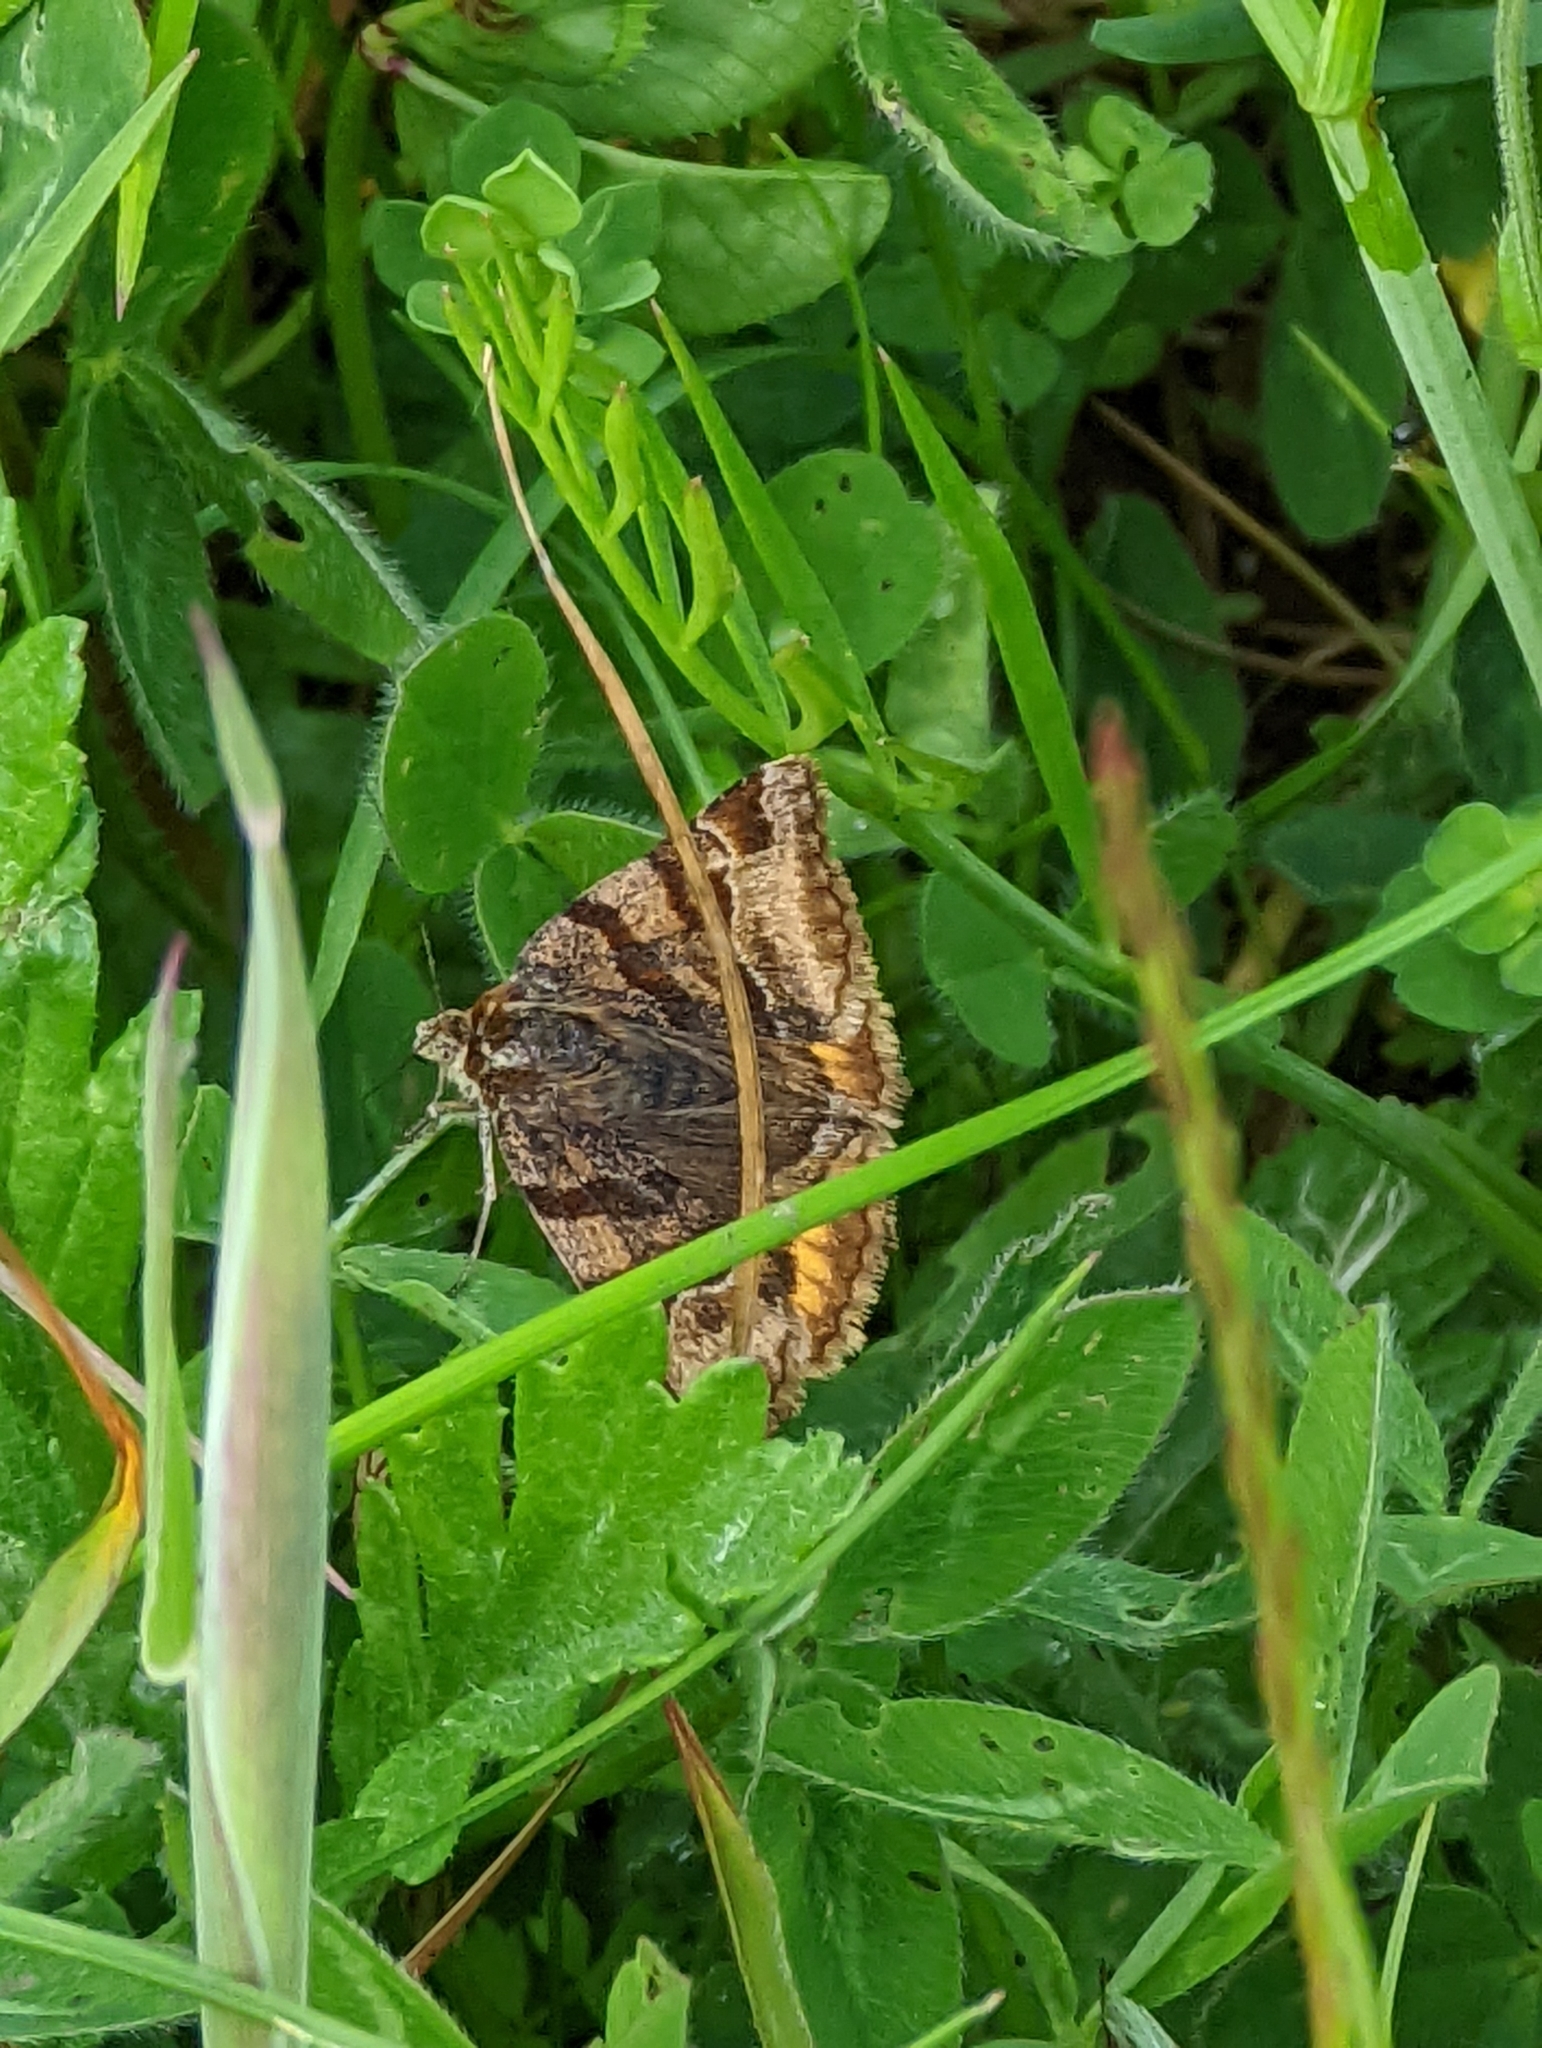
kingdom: Animalia
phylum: Arthropoda
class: Insecta
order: Lepidoptera
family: Erebidae
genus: Euclidia
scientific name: Euclidia glyphica
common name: Burnet companion
